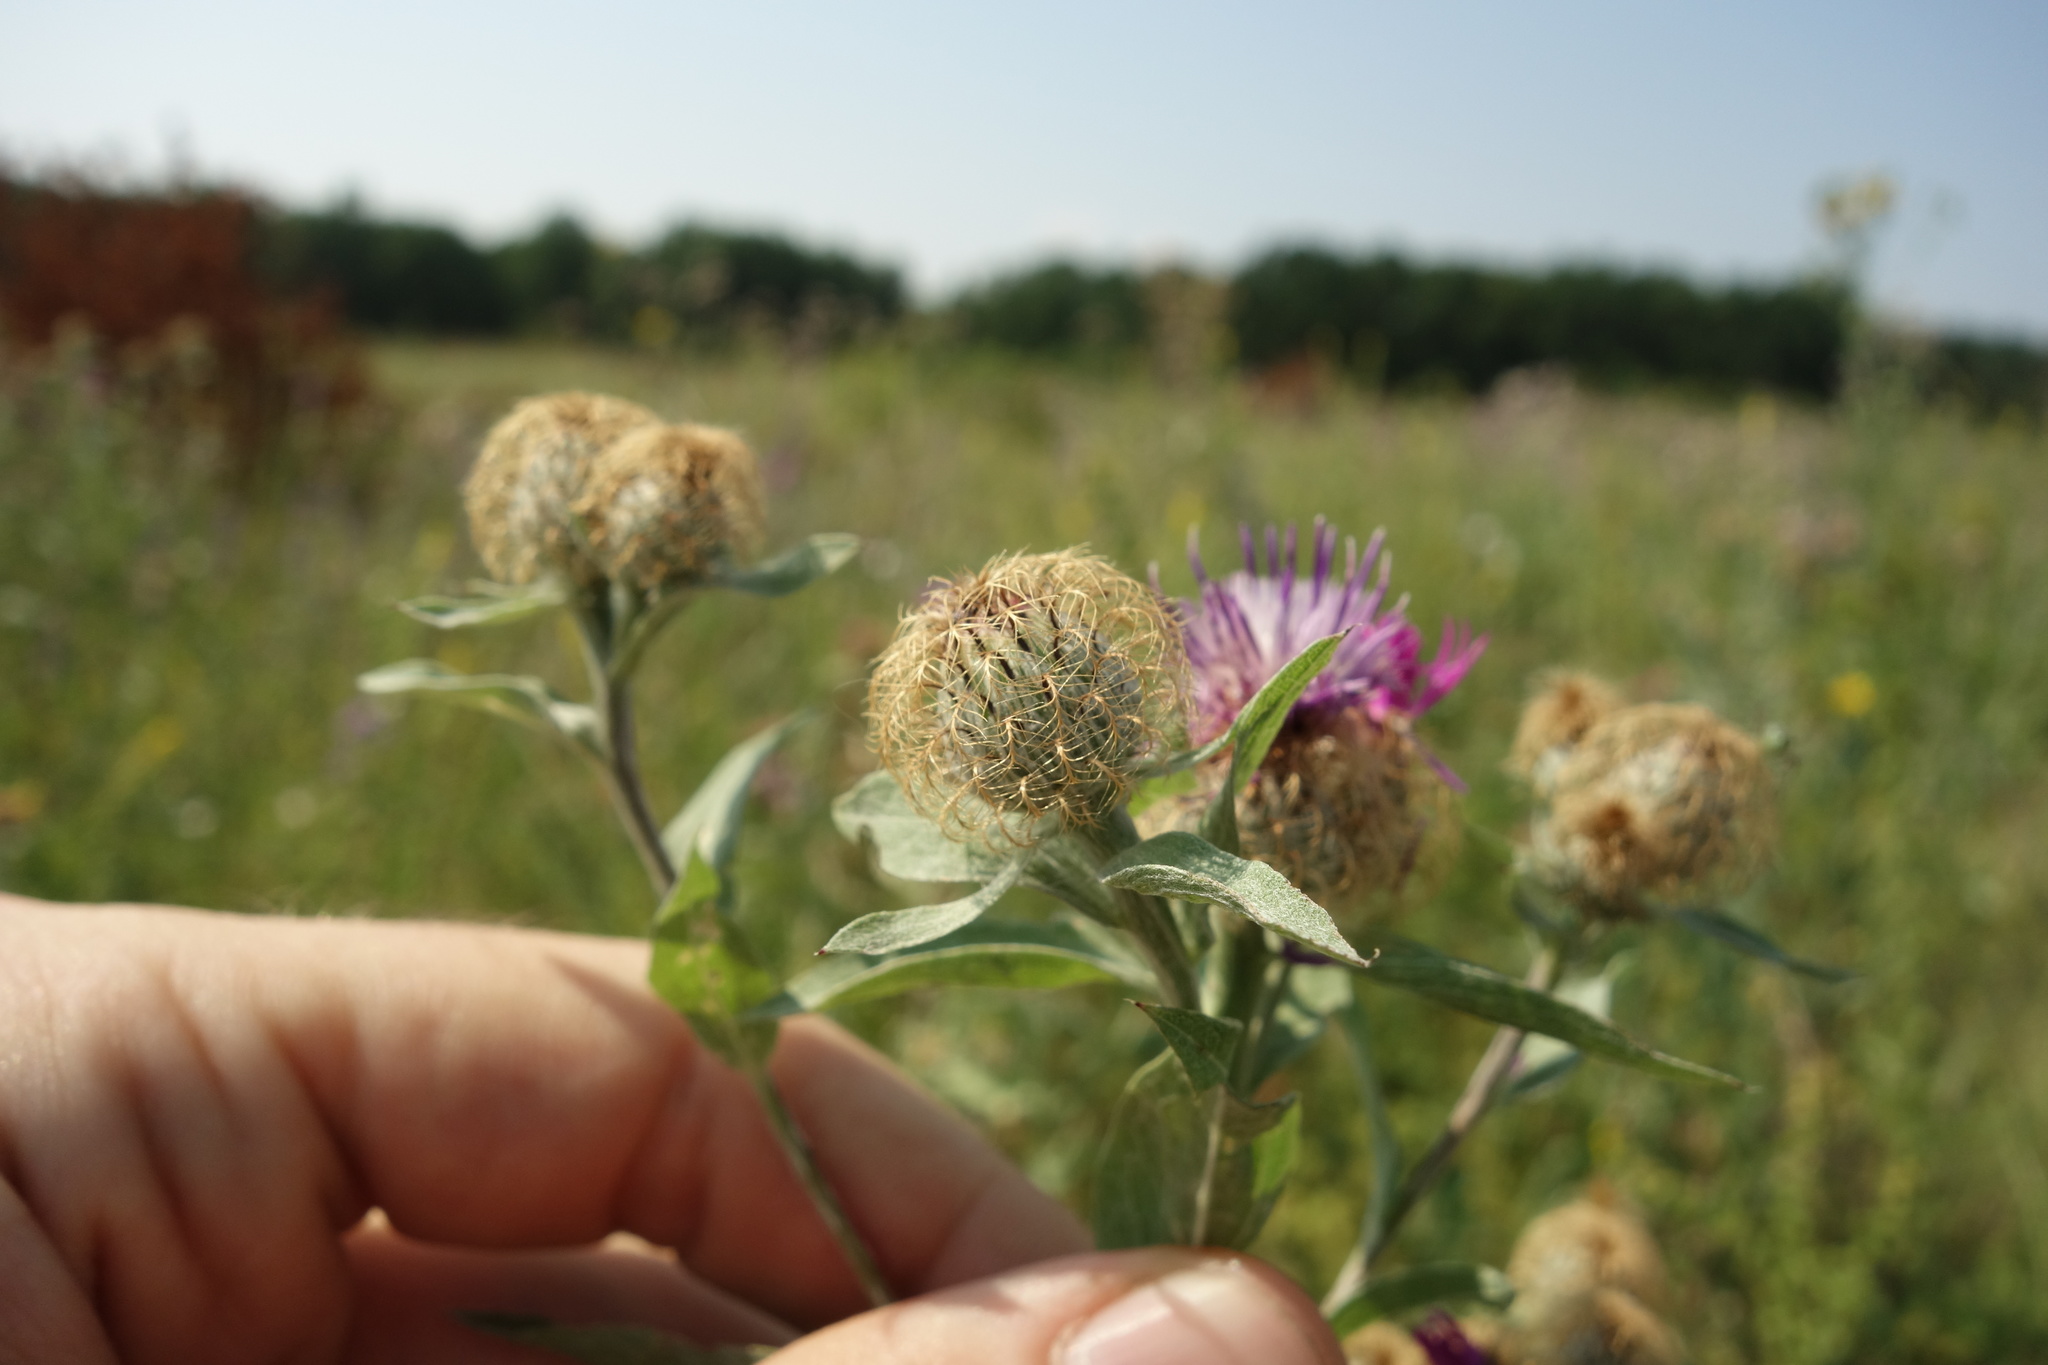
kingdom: Plantae
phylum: Tracheophyta
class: Magnoliopsida
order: Asterales
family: Asteraceae
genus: Centaurea
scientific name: Centaurea pseudophrygia
